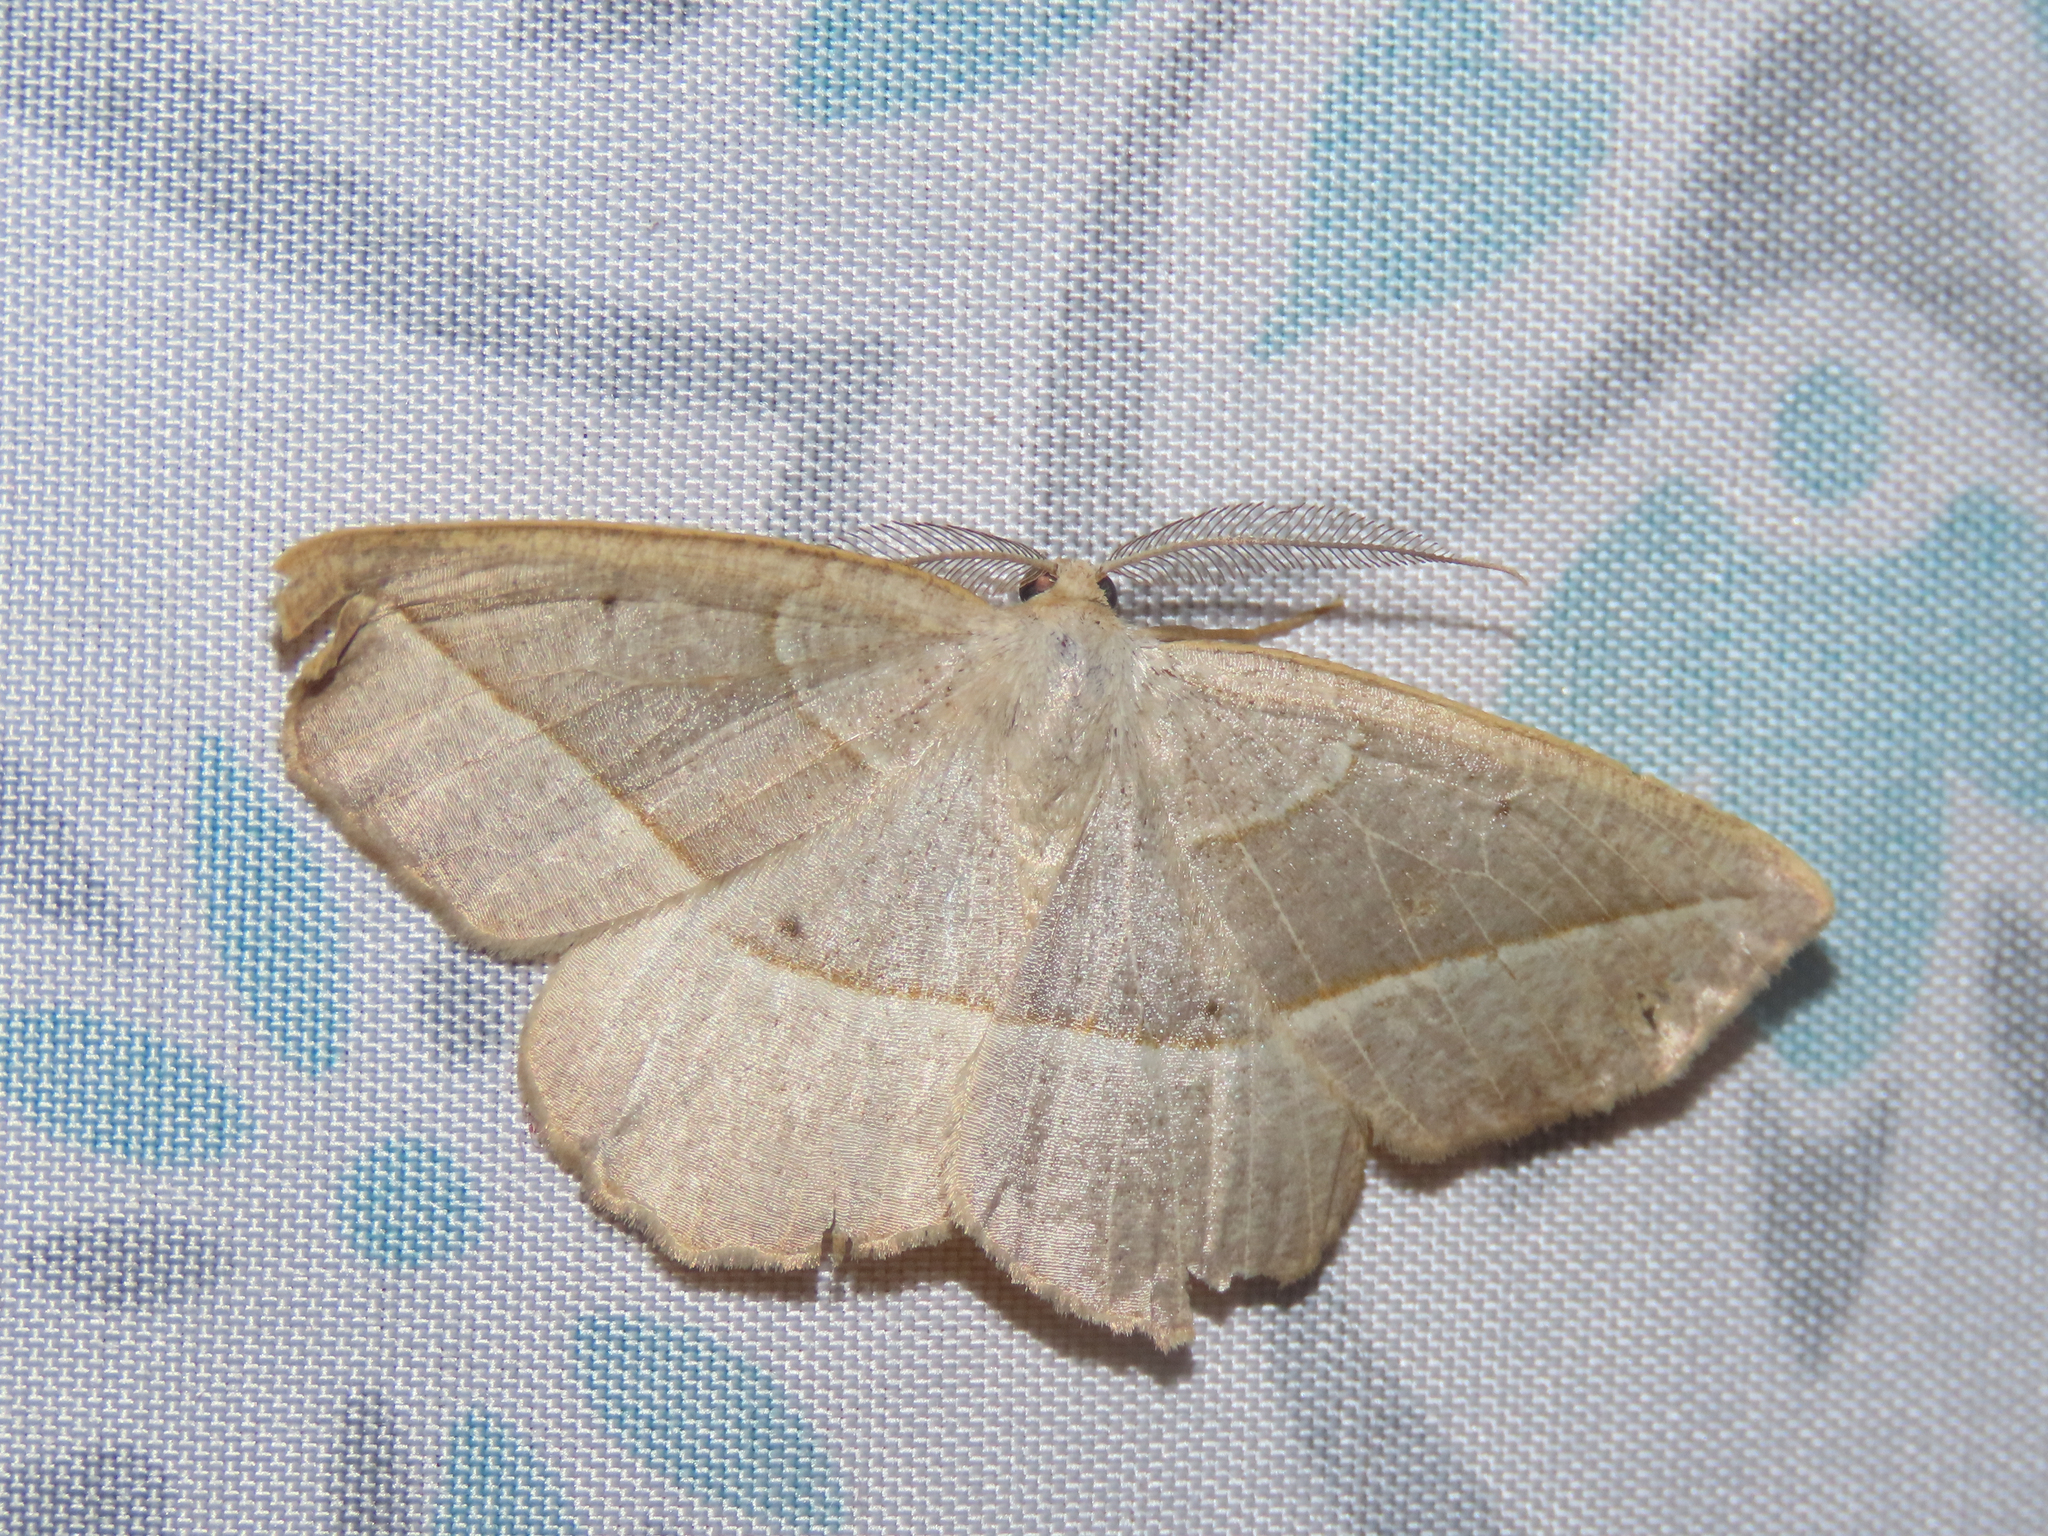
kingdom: Animalia
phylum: Arthropoda
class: Insecta
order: Lepidoptera
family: Geometridae
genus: Eusarca
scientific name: Eusarca confusaria
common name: Confused eusarca
